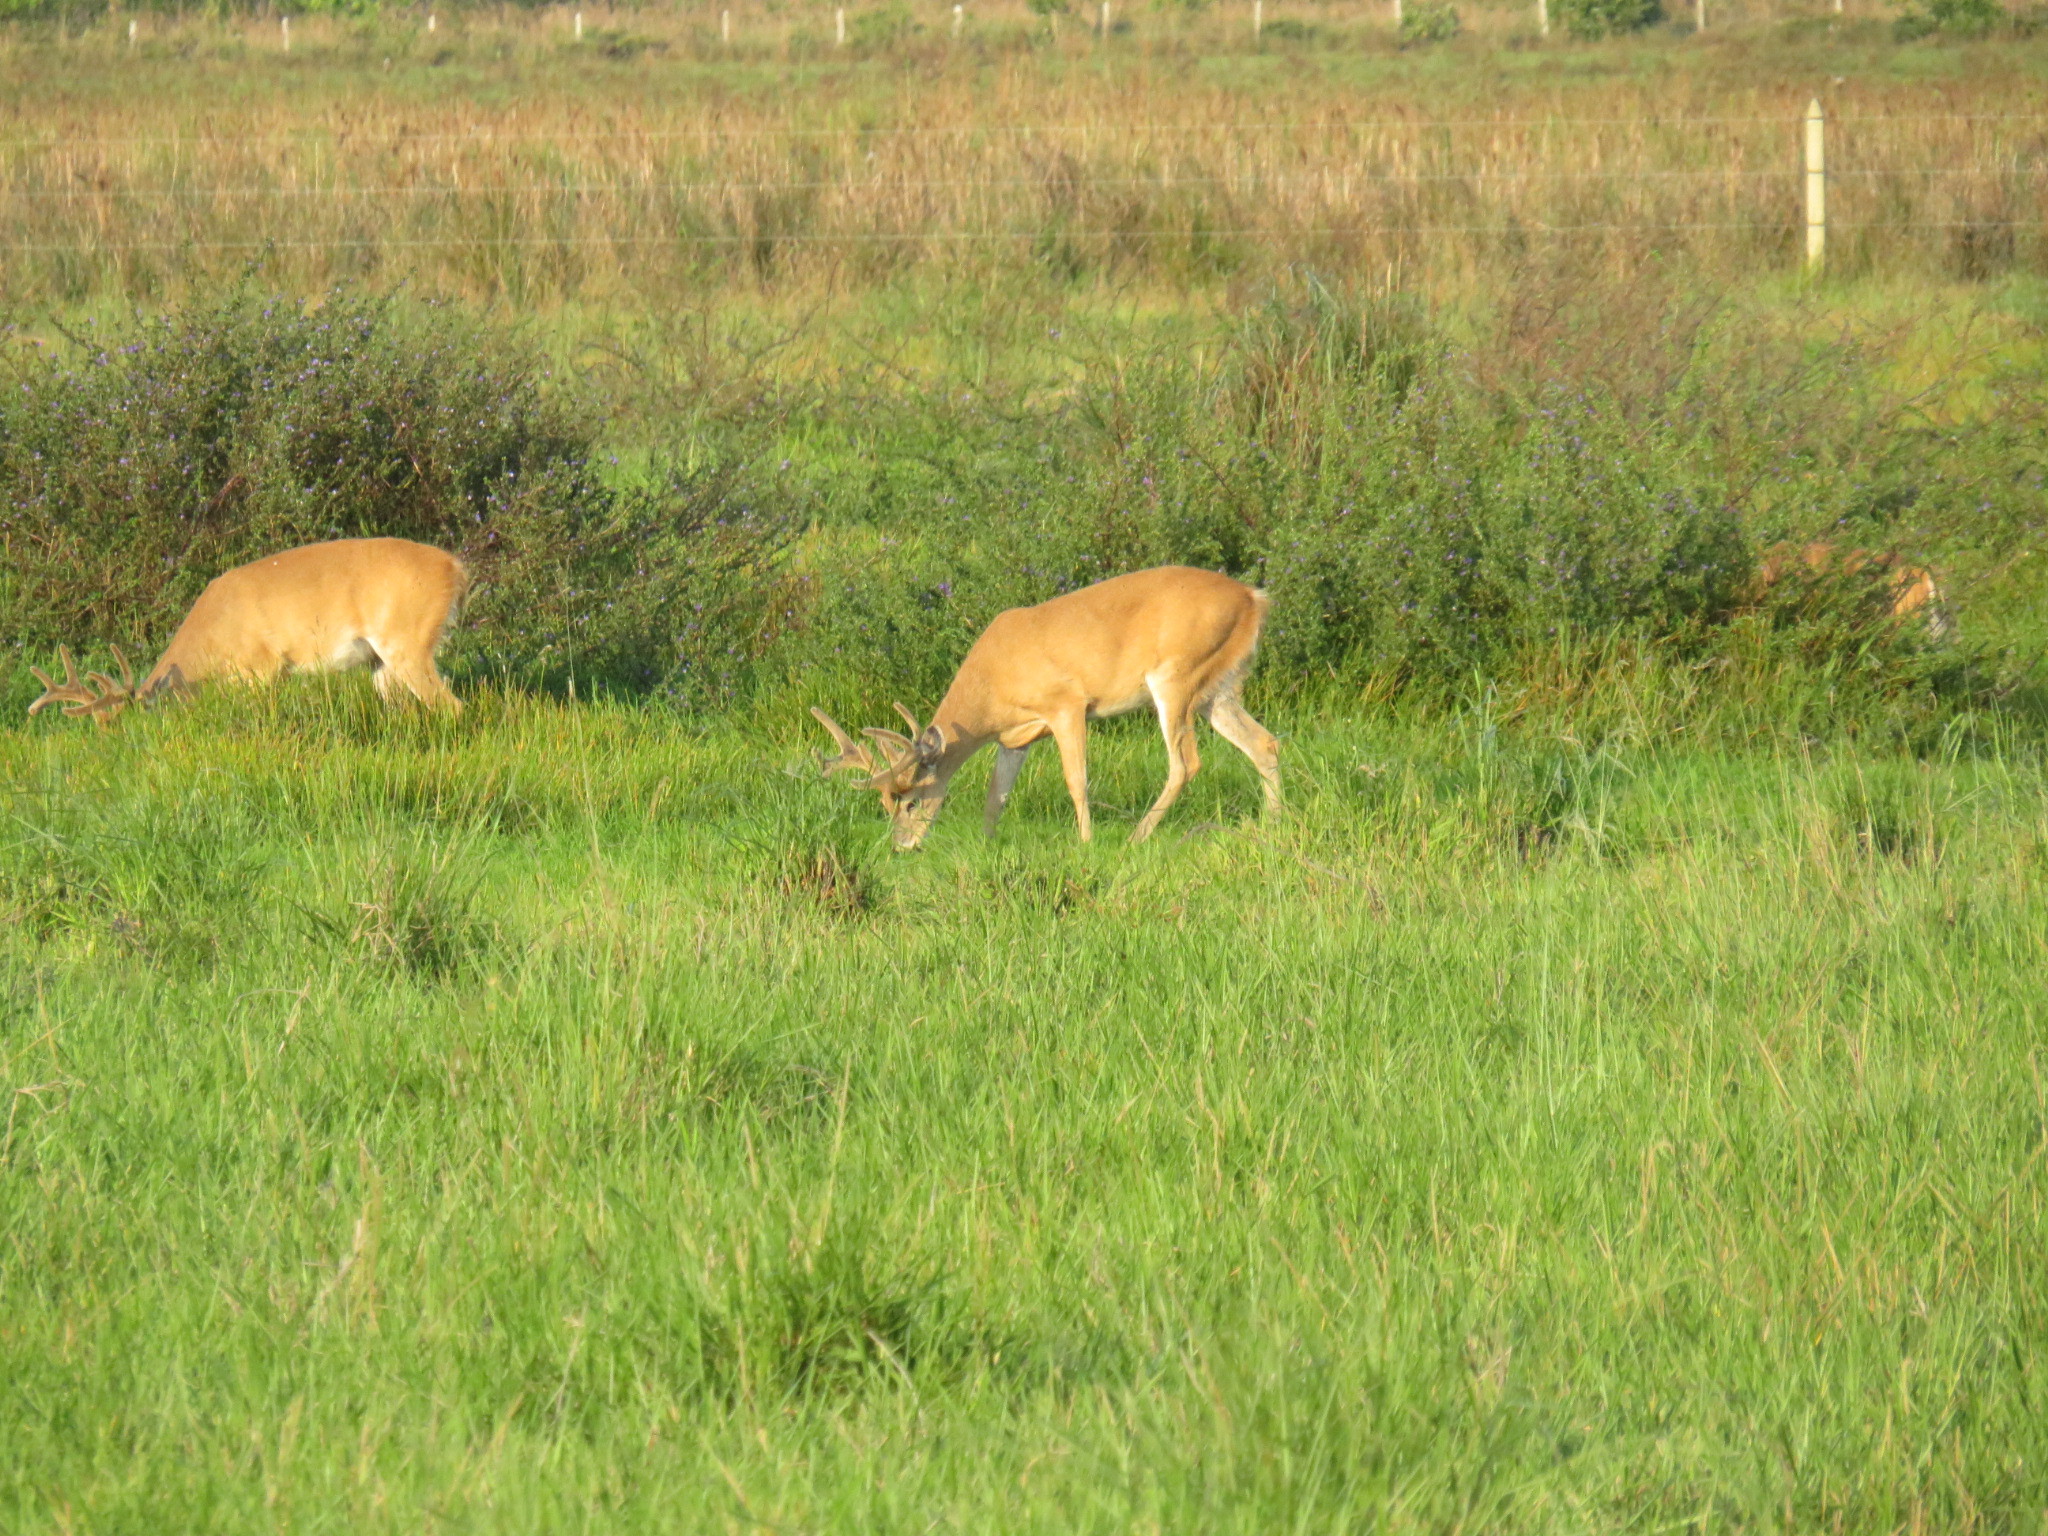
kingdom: Animalia
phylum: Chordata
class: Mammalia
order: Artiodactyla
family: Cervidae
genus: Odocoileus
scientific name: Odocoileus virginianus
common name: White-tailed deer
